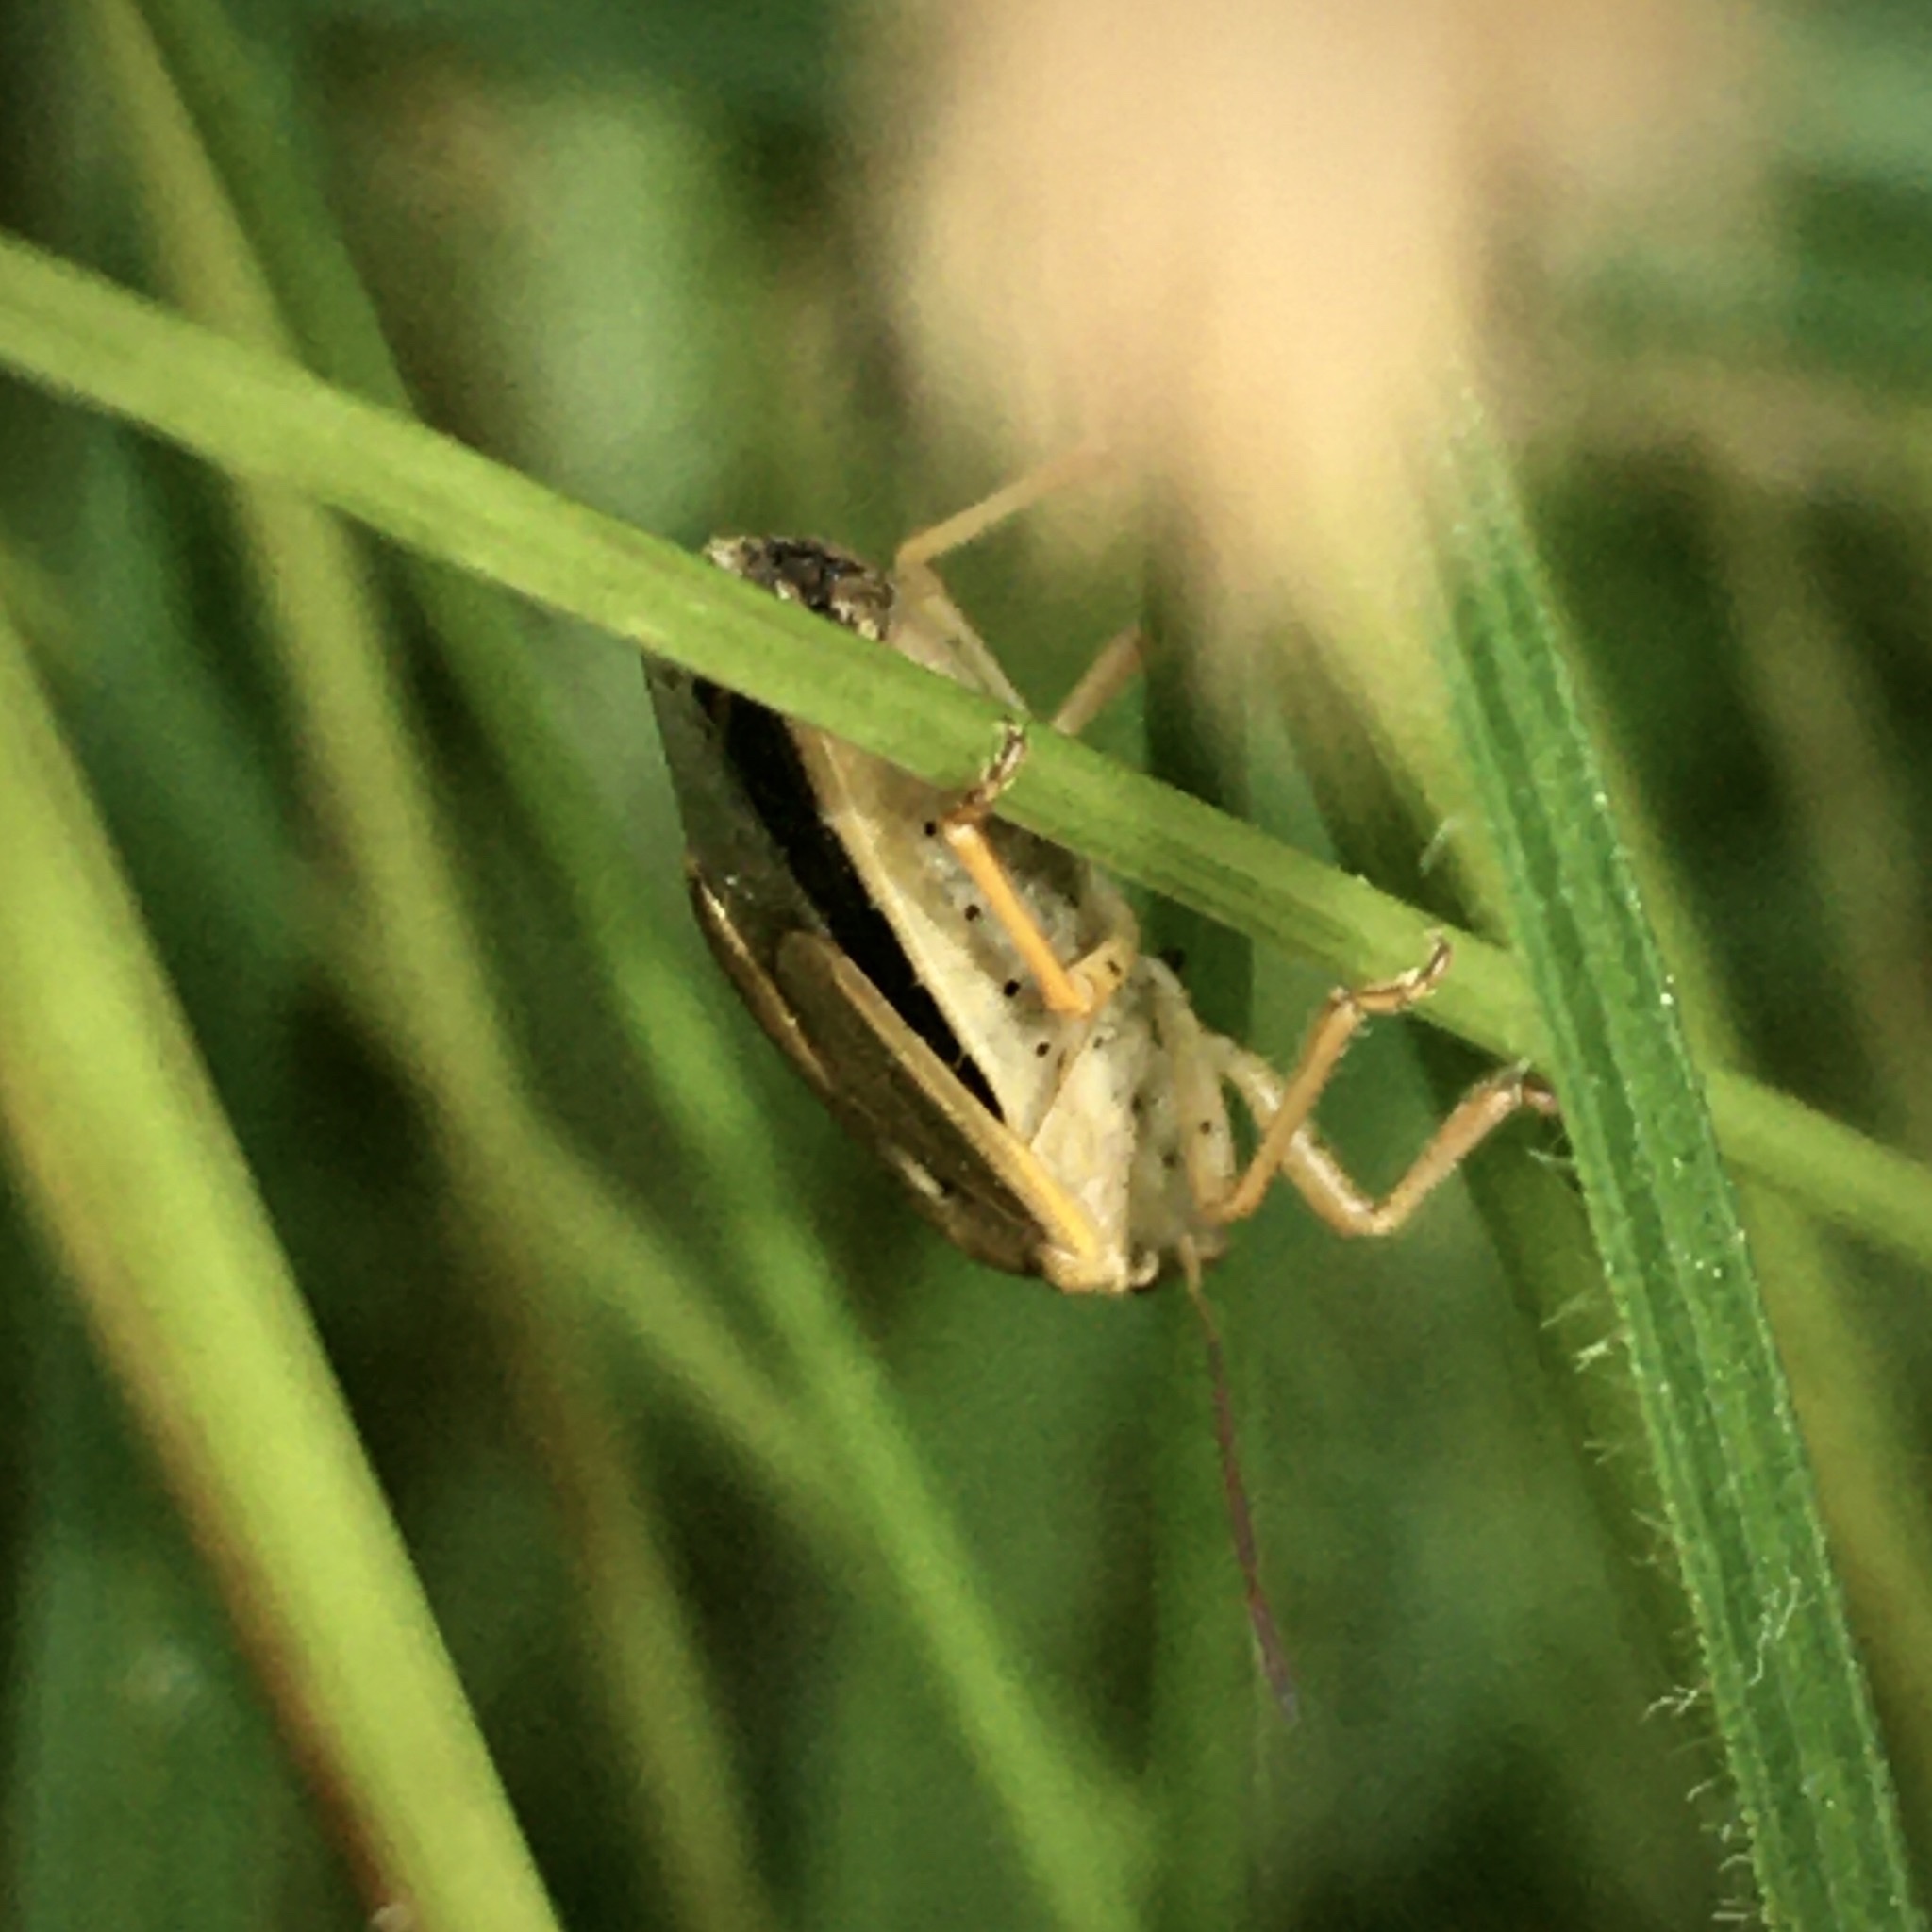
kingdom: Animalia
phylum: Arthropoda
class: Insecta
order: Hemiptera
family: Pentatomidae
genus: Aelia
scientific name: Aelia acuminata
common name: Bishop's mitre
